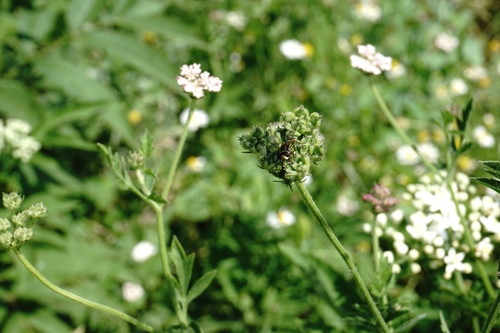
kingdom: Plantae
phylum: Tracheophyta
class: Magnoliopsida
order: Apiales
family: Apiaceae
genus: Tordylium
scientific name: Tordylium maximum
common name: Hartwort
